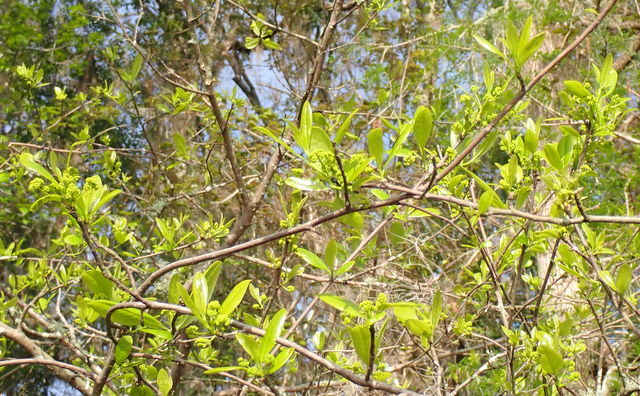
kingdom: Plantae
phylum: Tracheophyta
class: Magnoliopsida
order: Cornales
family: Nyssaceae
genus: Nyssa
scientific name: Nyssa biflora
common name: Swamp blackgum
